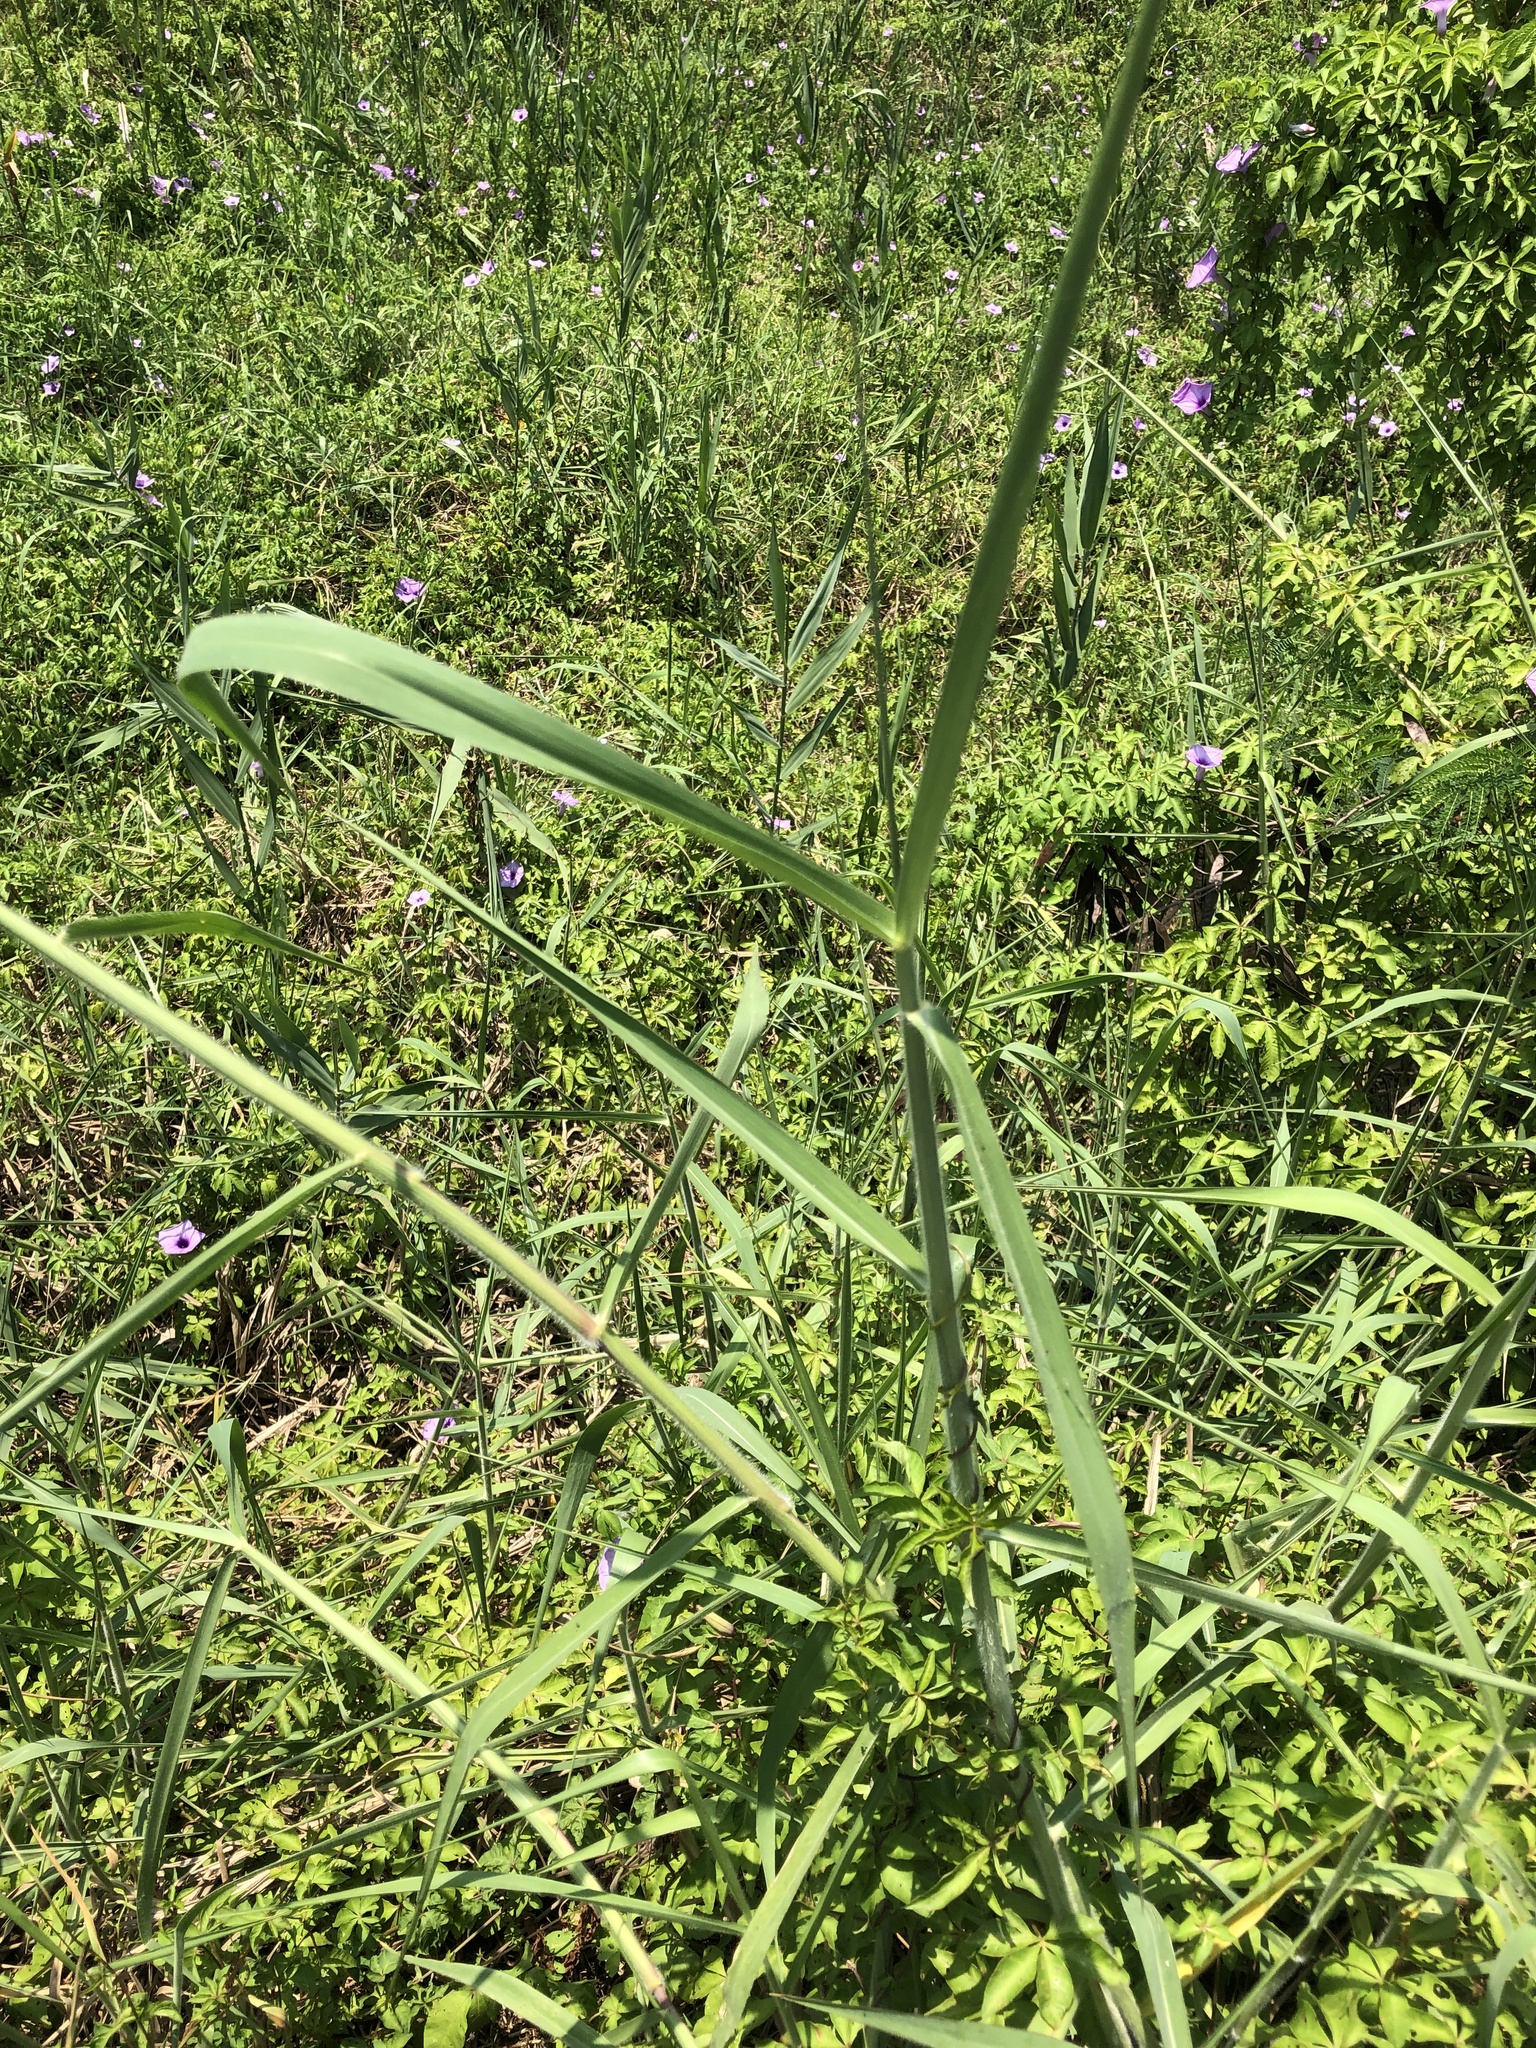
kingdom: Plantae
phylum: Tracheophyta
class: Liliopsida
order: Poales
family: Poaceae
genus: Urochloa
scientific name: Urochloa mutica
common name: Para grass
